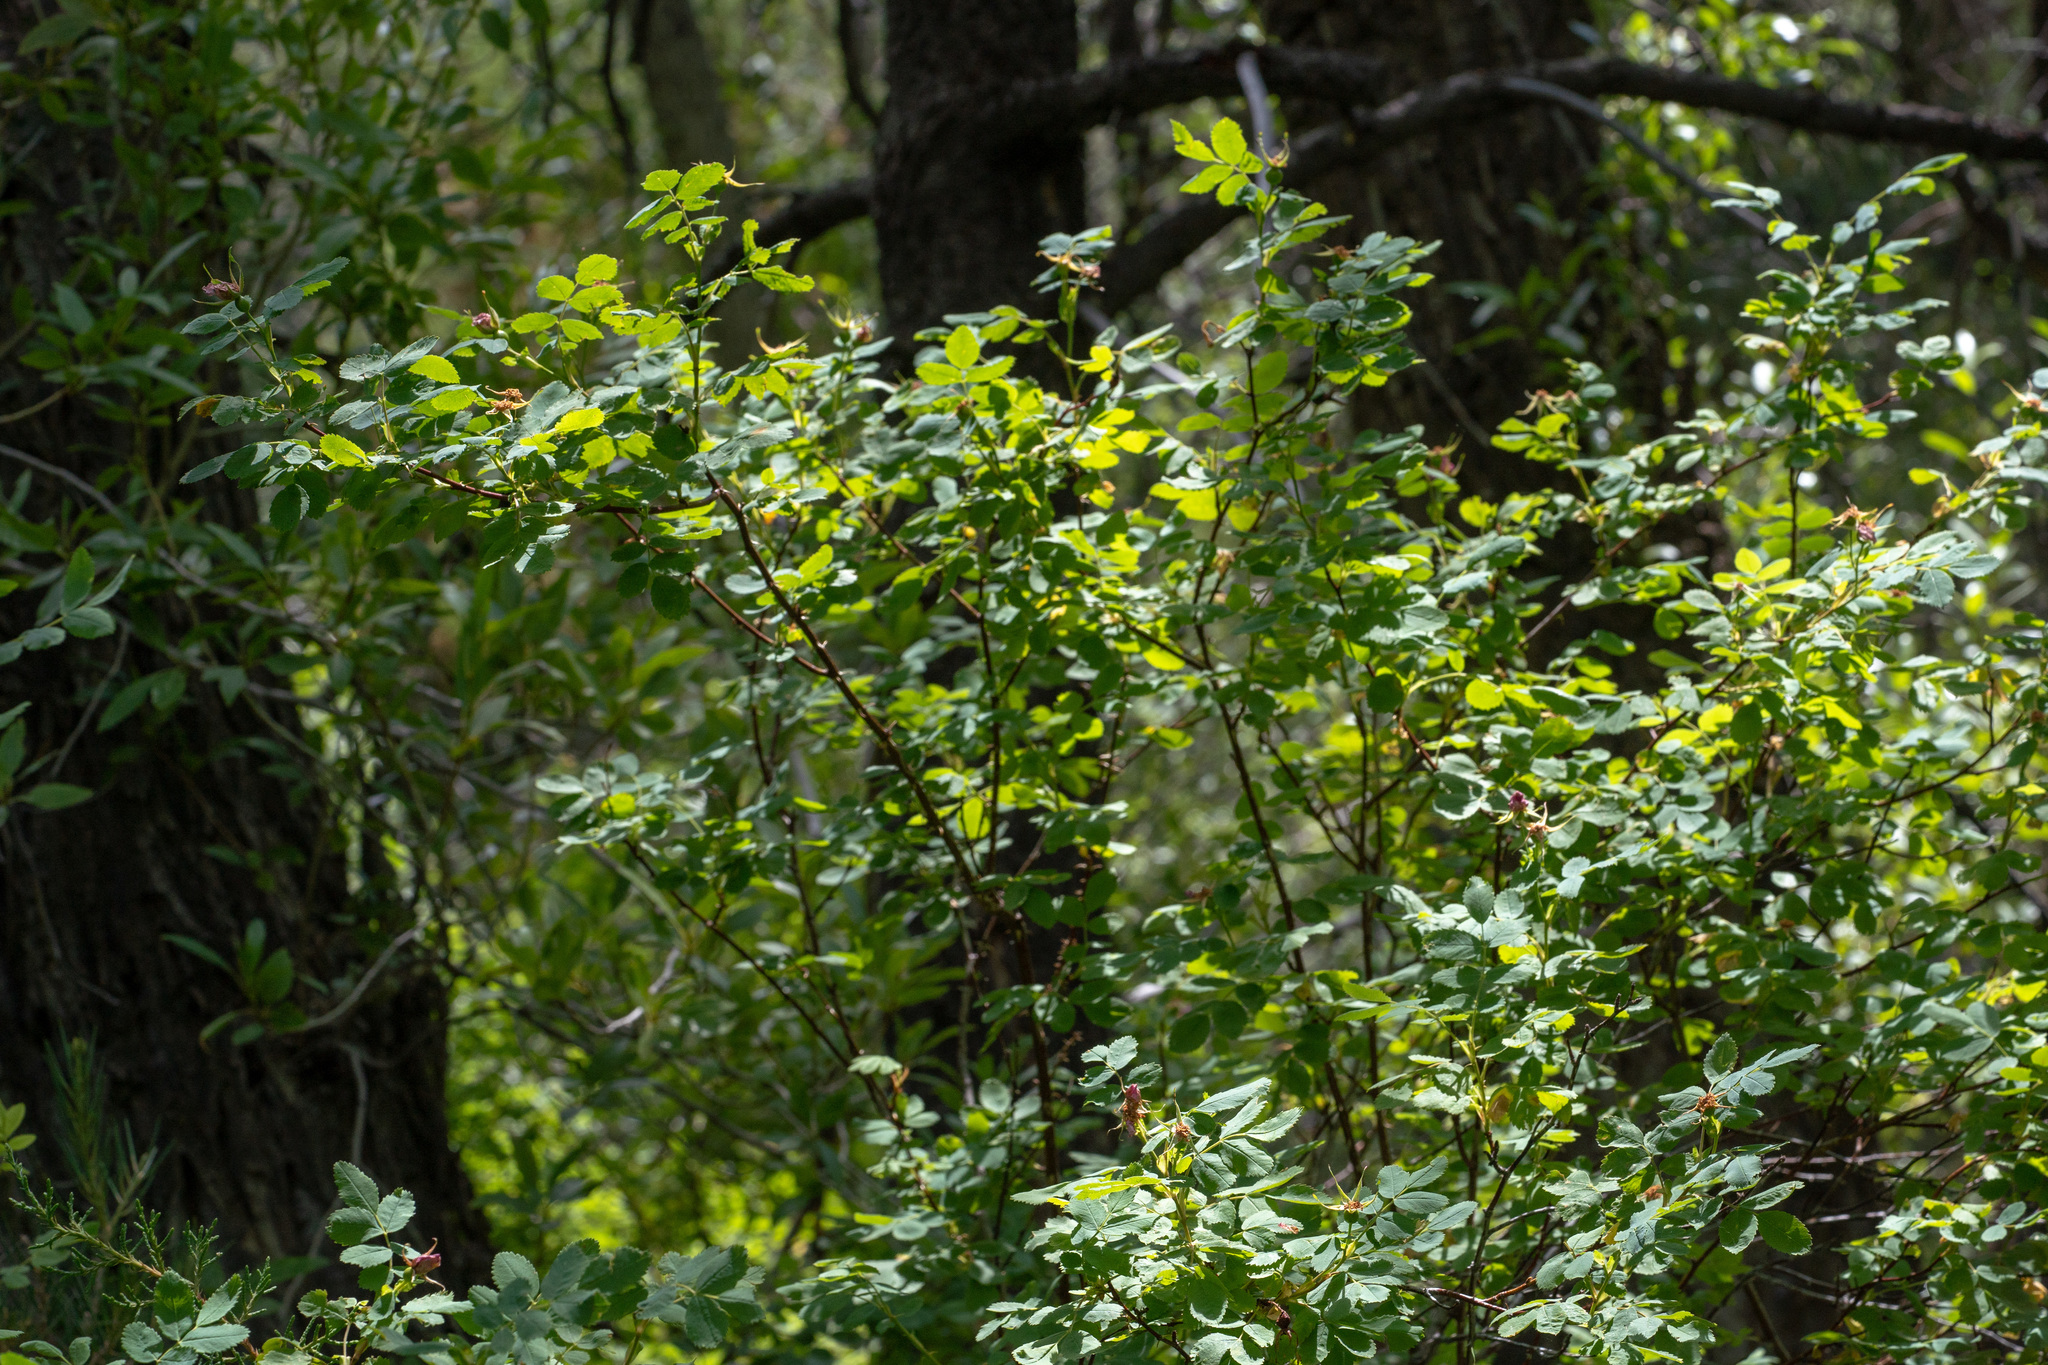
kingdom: Plantae
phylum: Tracheophyta
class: Magnoliopsida
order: Rosales
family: Rosaceae
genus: Rosa
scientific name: Rosa woodsii
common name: Woods's rose
